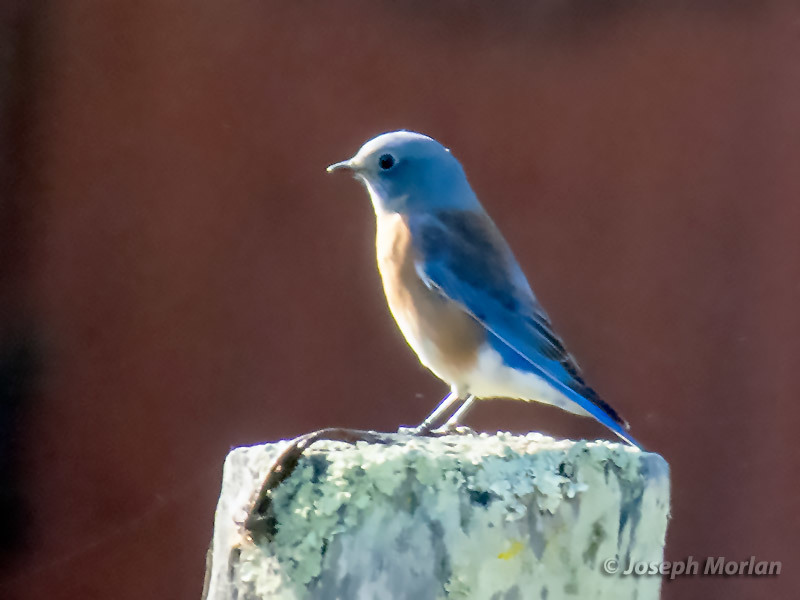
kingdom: Animalia
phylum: Chordata
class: Aves
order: Passeriformes
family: Turdidae
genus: Sialia
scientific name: Sialia mexicana
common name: Western bluebird
